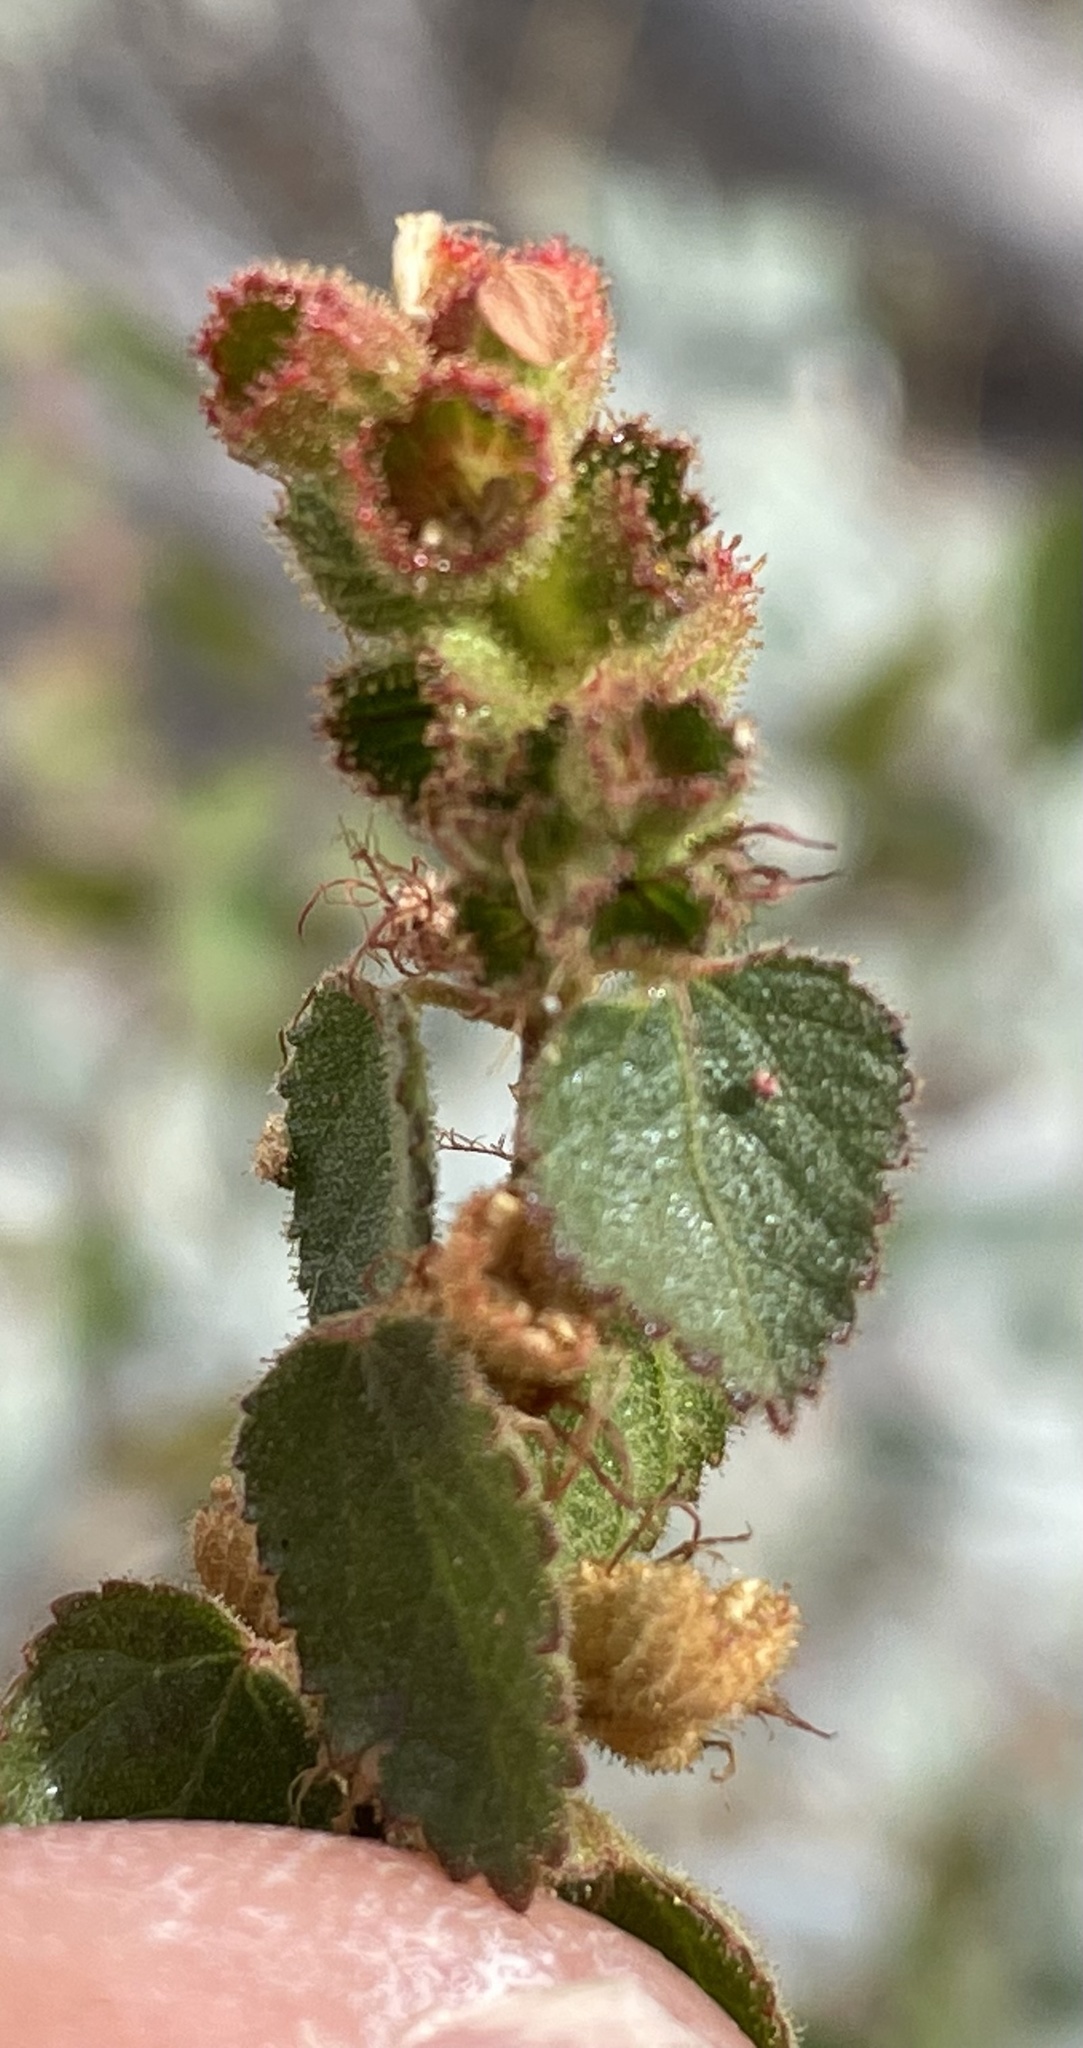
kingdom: Plantae
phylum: Tracheophyta
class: Magnoliopsida
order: Malpighiales
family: Euphorbiaceae
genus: Acalypha
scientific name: Acalypha californica
